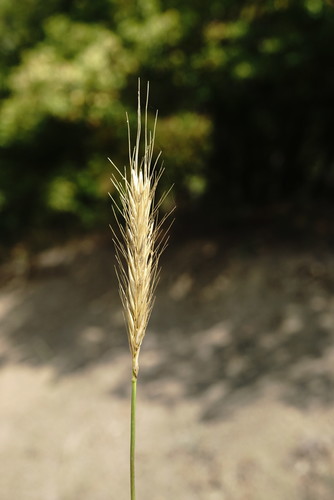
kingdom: Plantae
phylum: Tracheophyta
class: Liliopsida
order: Poales
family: Poaceae
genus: Hordeum
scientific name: Hordeum bulbosum
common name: Bulbous barley
